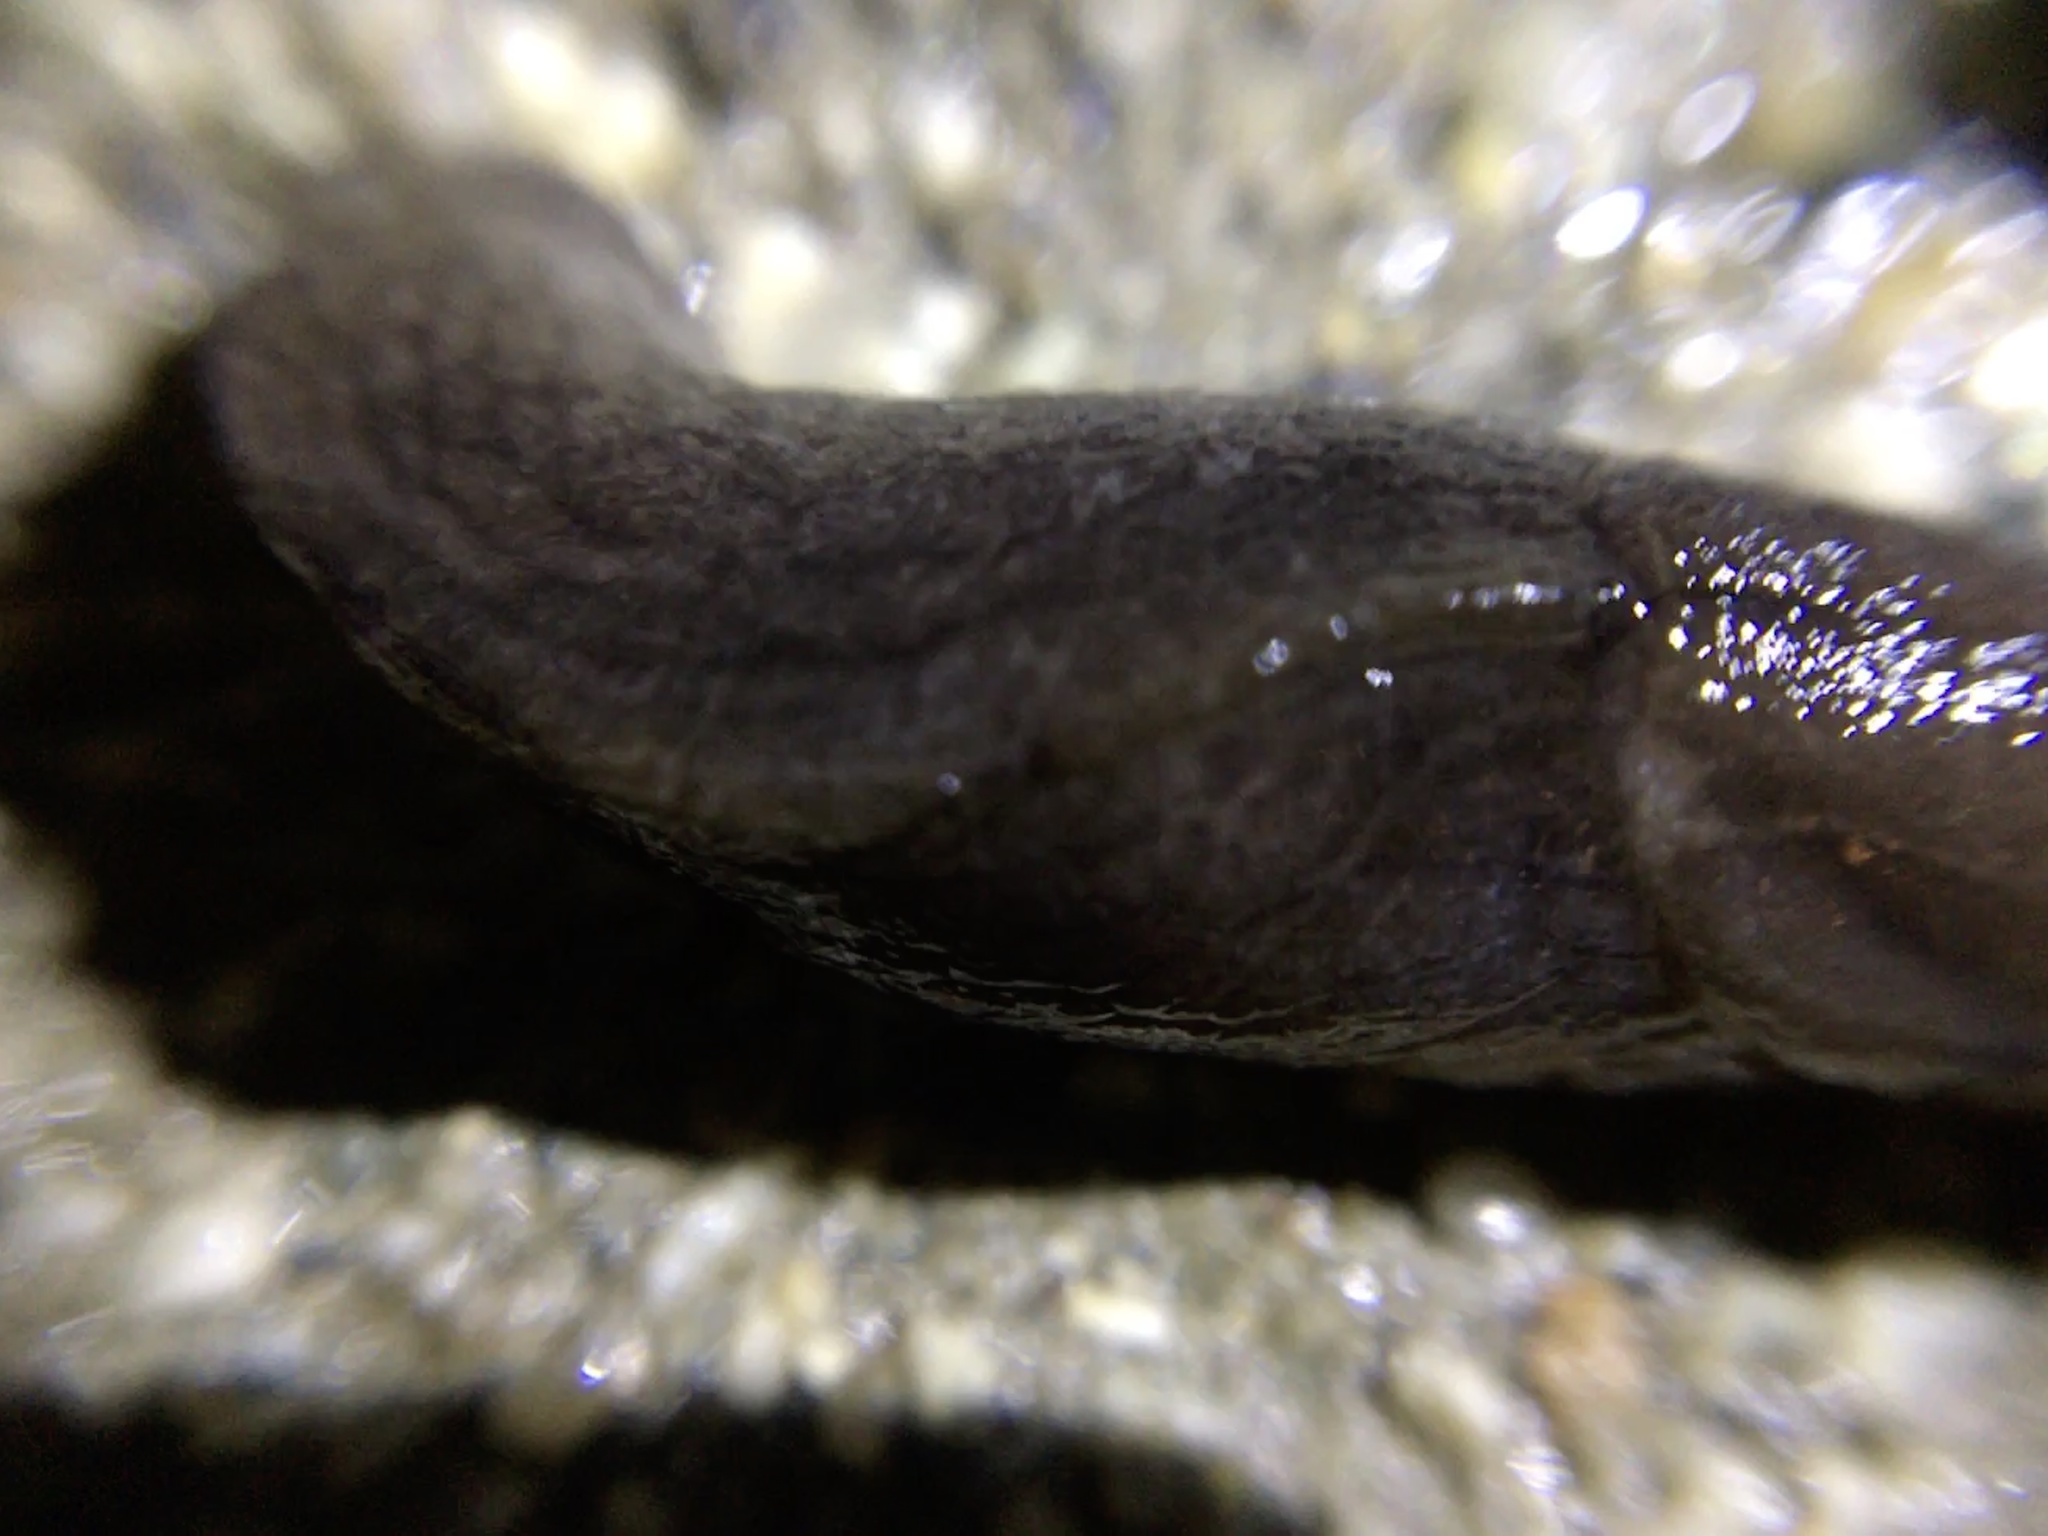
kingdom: Animalia
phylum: Mollusca
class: Gastropoda
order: Stylommatophora
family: Milacidae
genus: Milax
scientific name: Milax gagates
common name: Greenhouse slug
